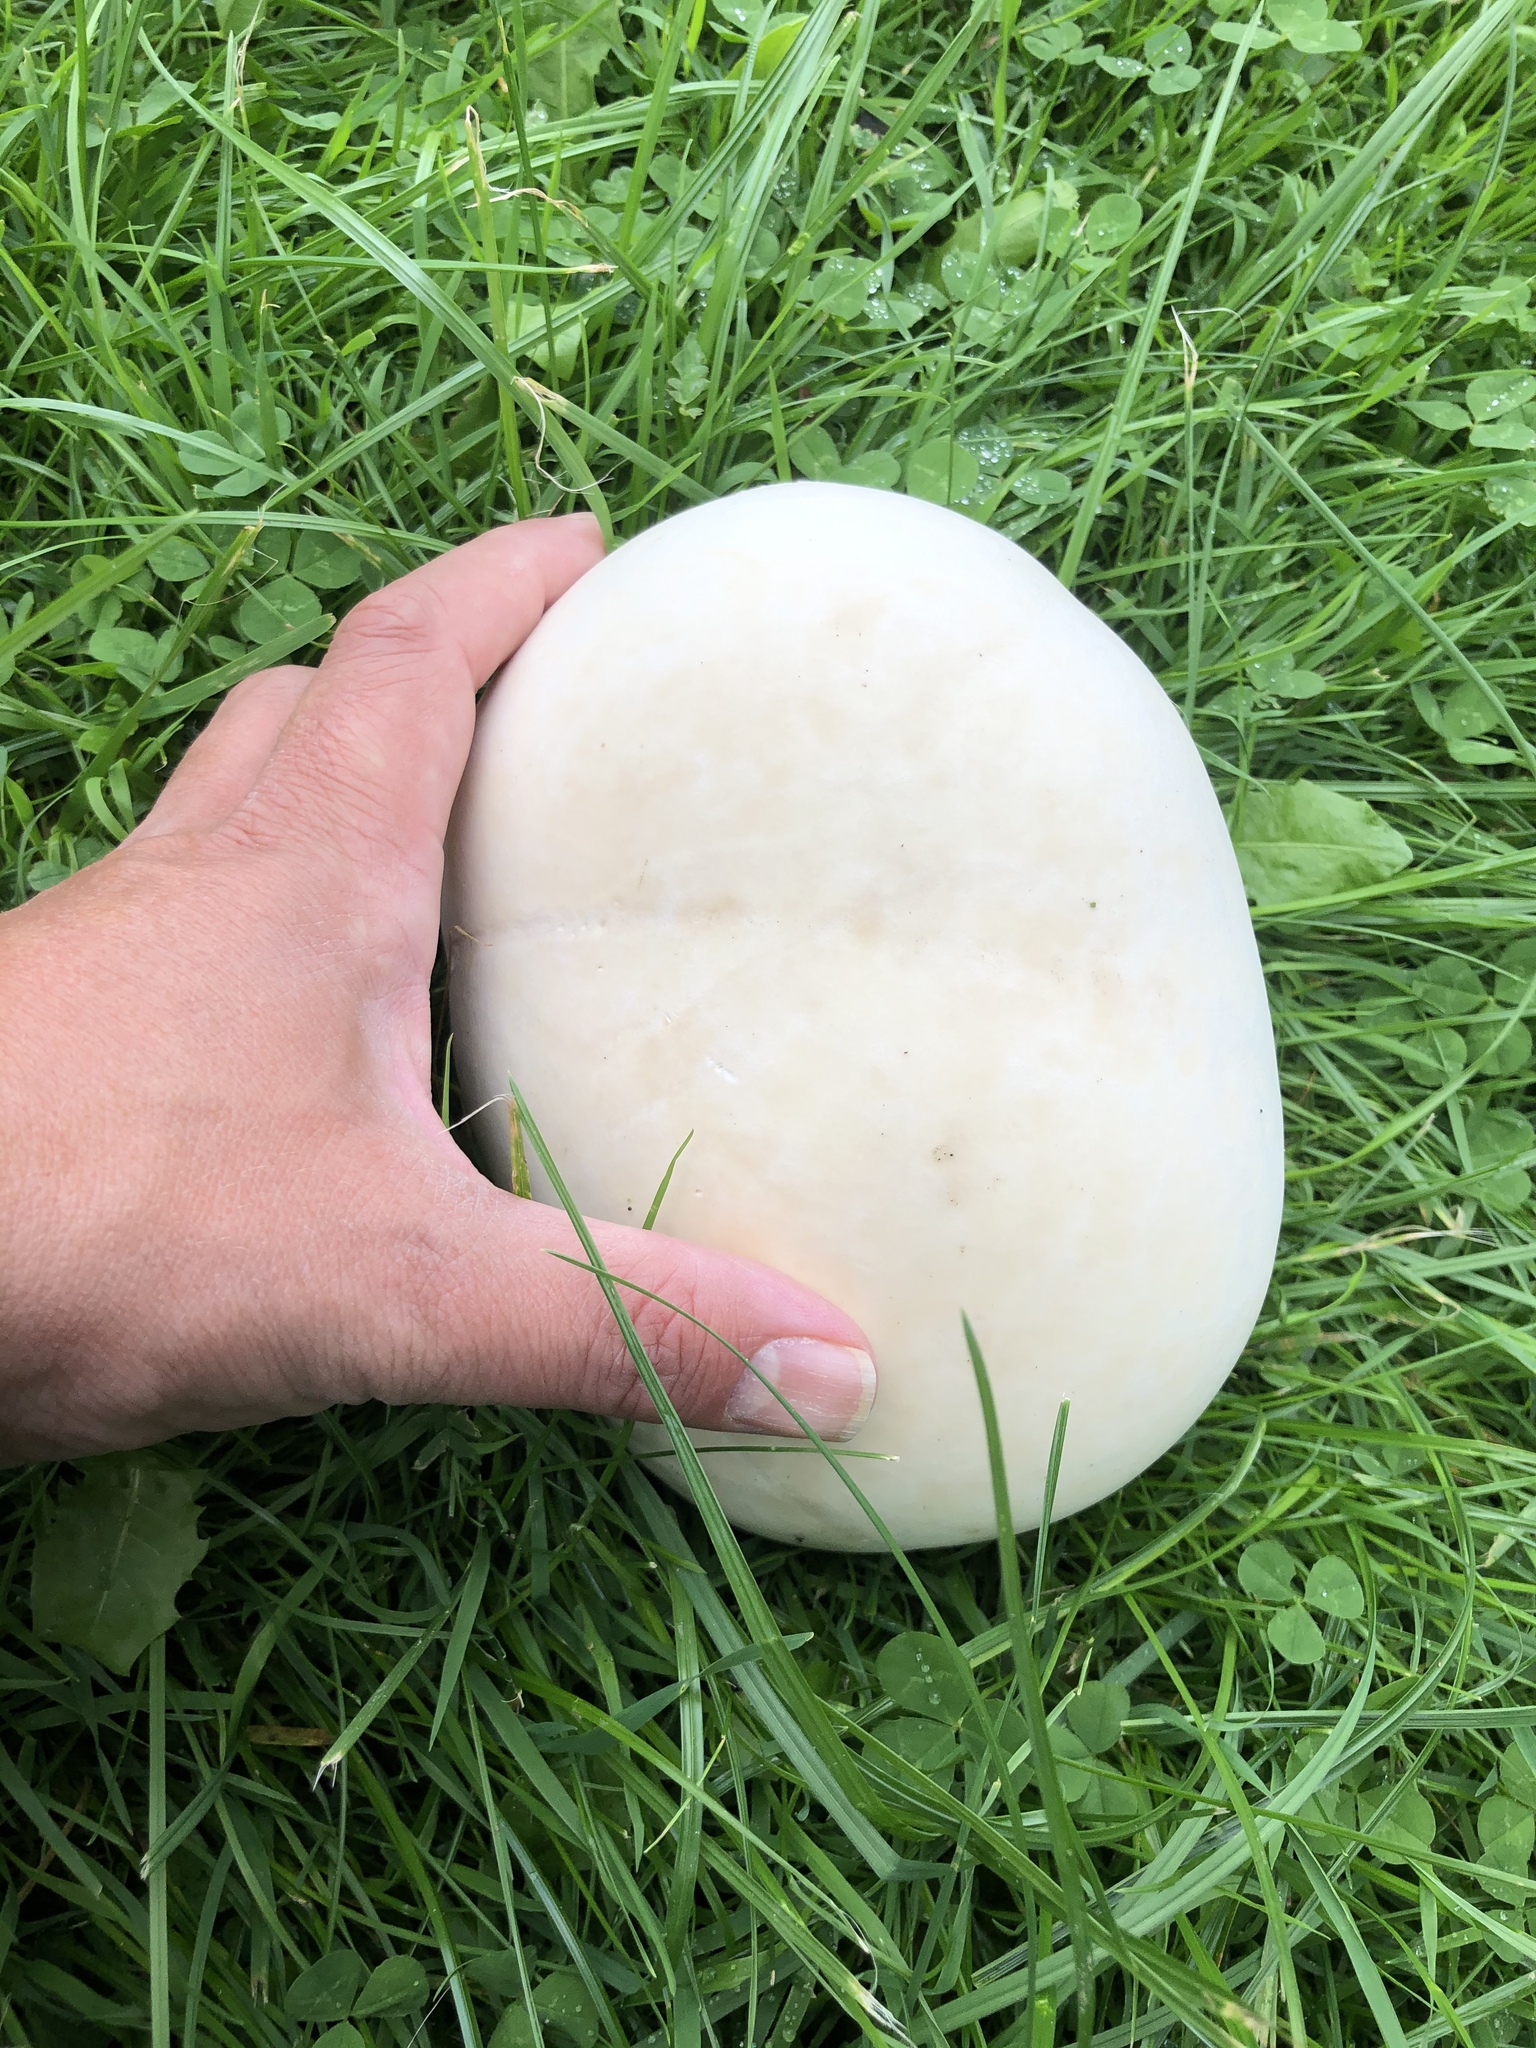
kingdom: Fungi
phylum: Basidiomycota
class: Agaricomycetes
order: Agaricales
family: Lycoperdaceae
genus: Calvatia
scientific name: Calvatia gigantea
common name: Giant puffball
